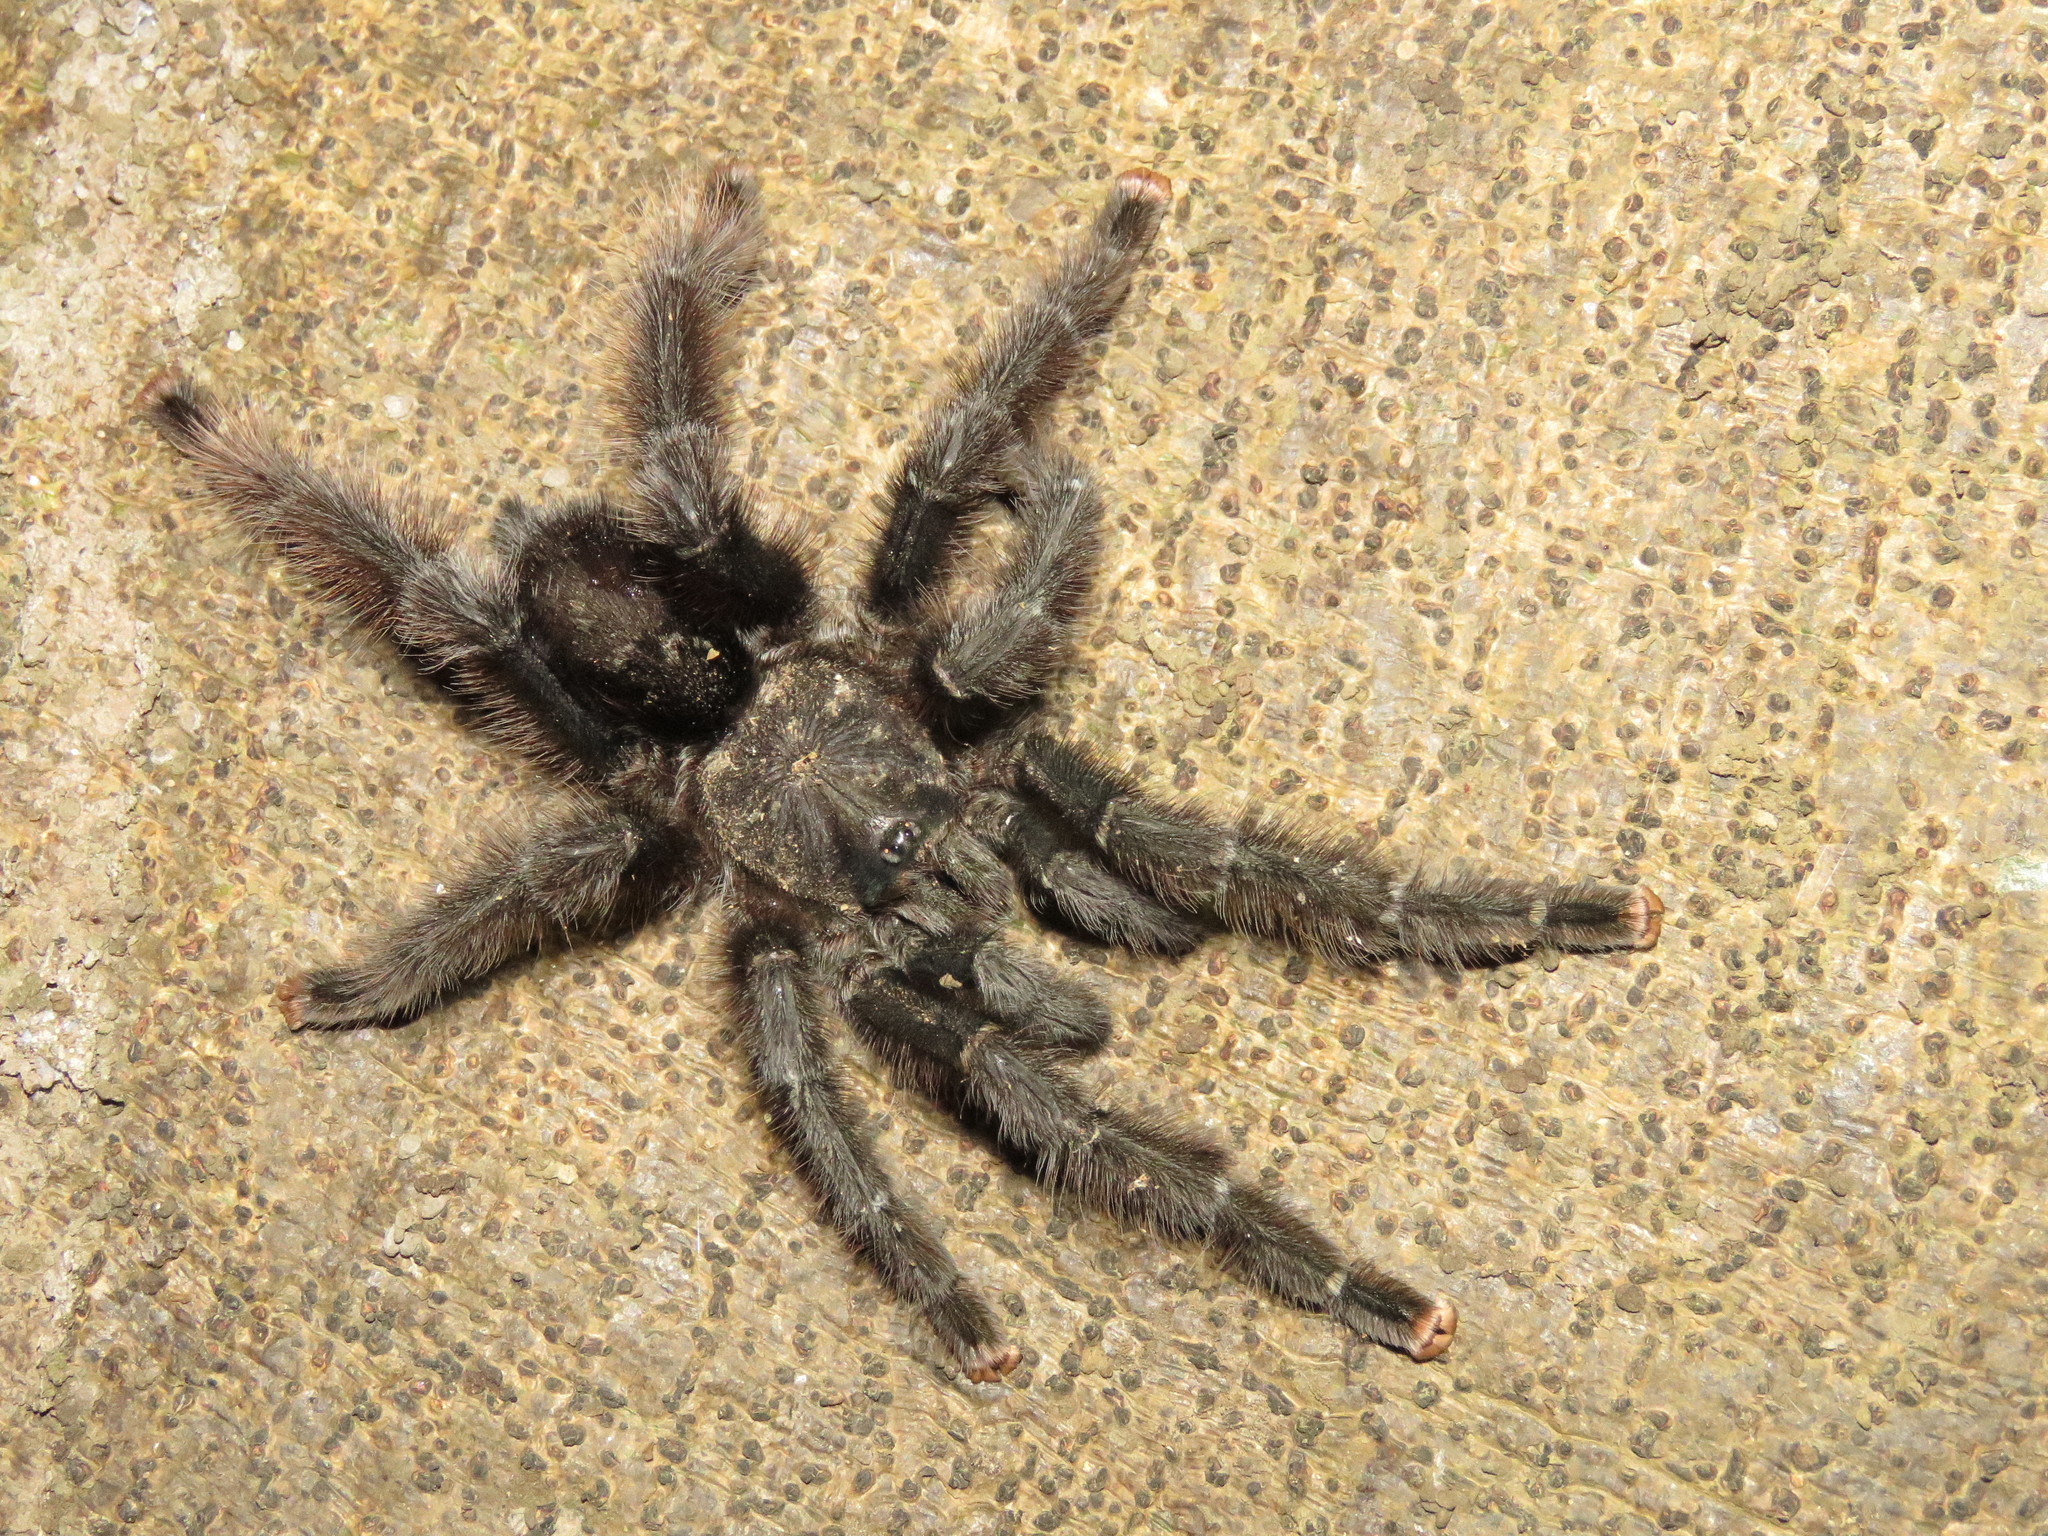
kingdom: Animalia
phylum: Arthropoda
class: Arachnida
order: Araneae
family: Theraphosidae
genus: Avicularia
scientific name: Avicularia avicularia
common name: Tarantula spiders
